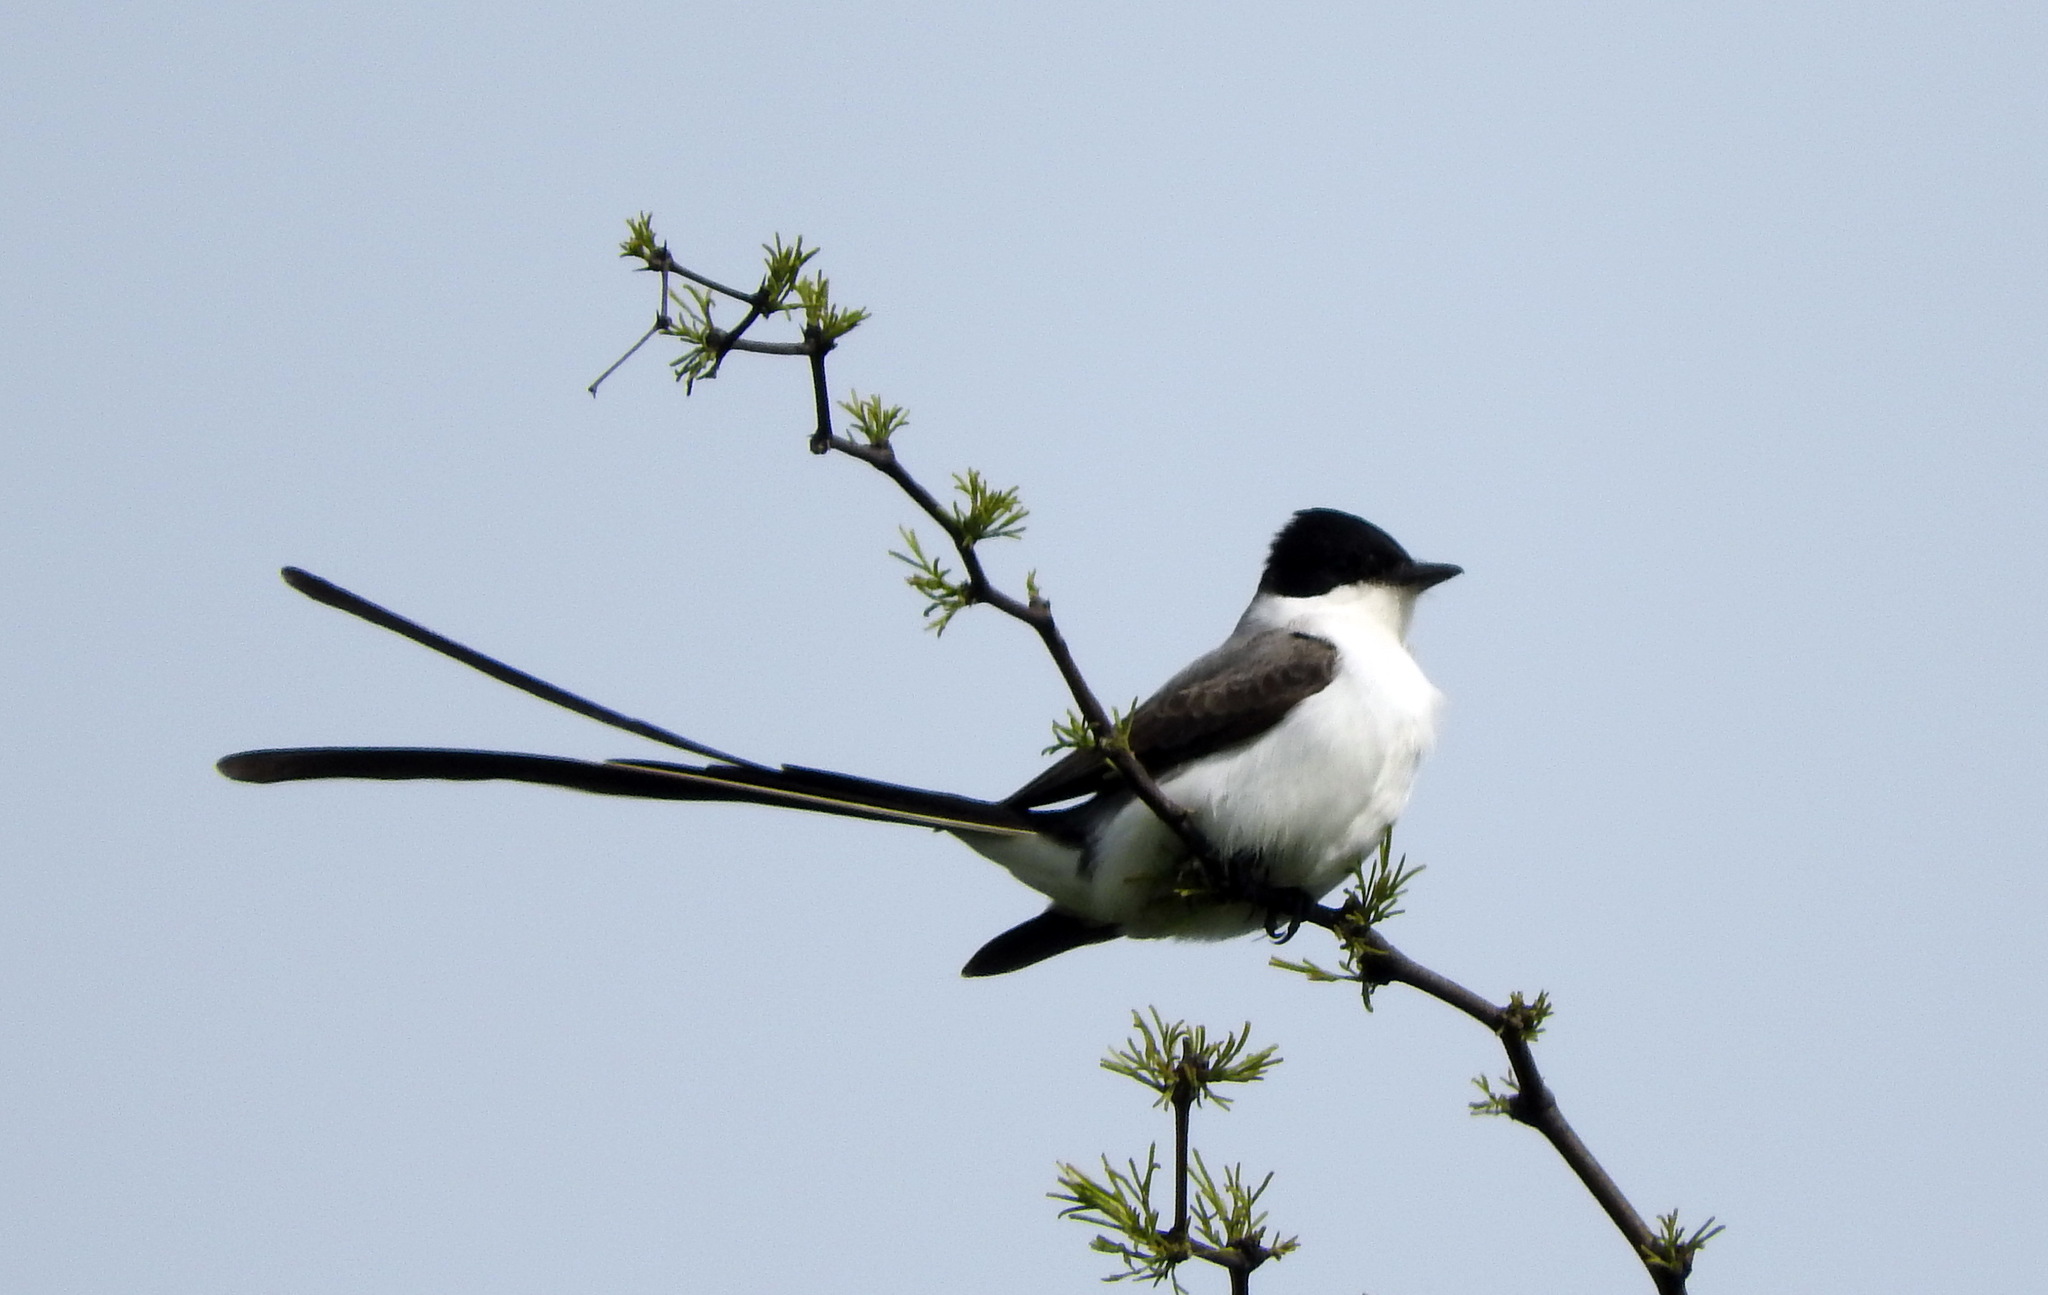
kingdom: Animalia
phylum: Chordata
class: Aves
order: Passeriformes
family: Tyrannidae
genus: Tyrannus
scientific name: Tyrannus savana
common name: Fork-tailed flycatcher
